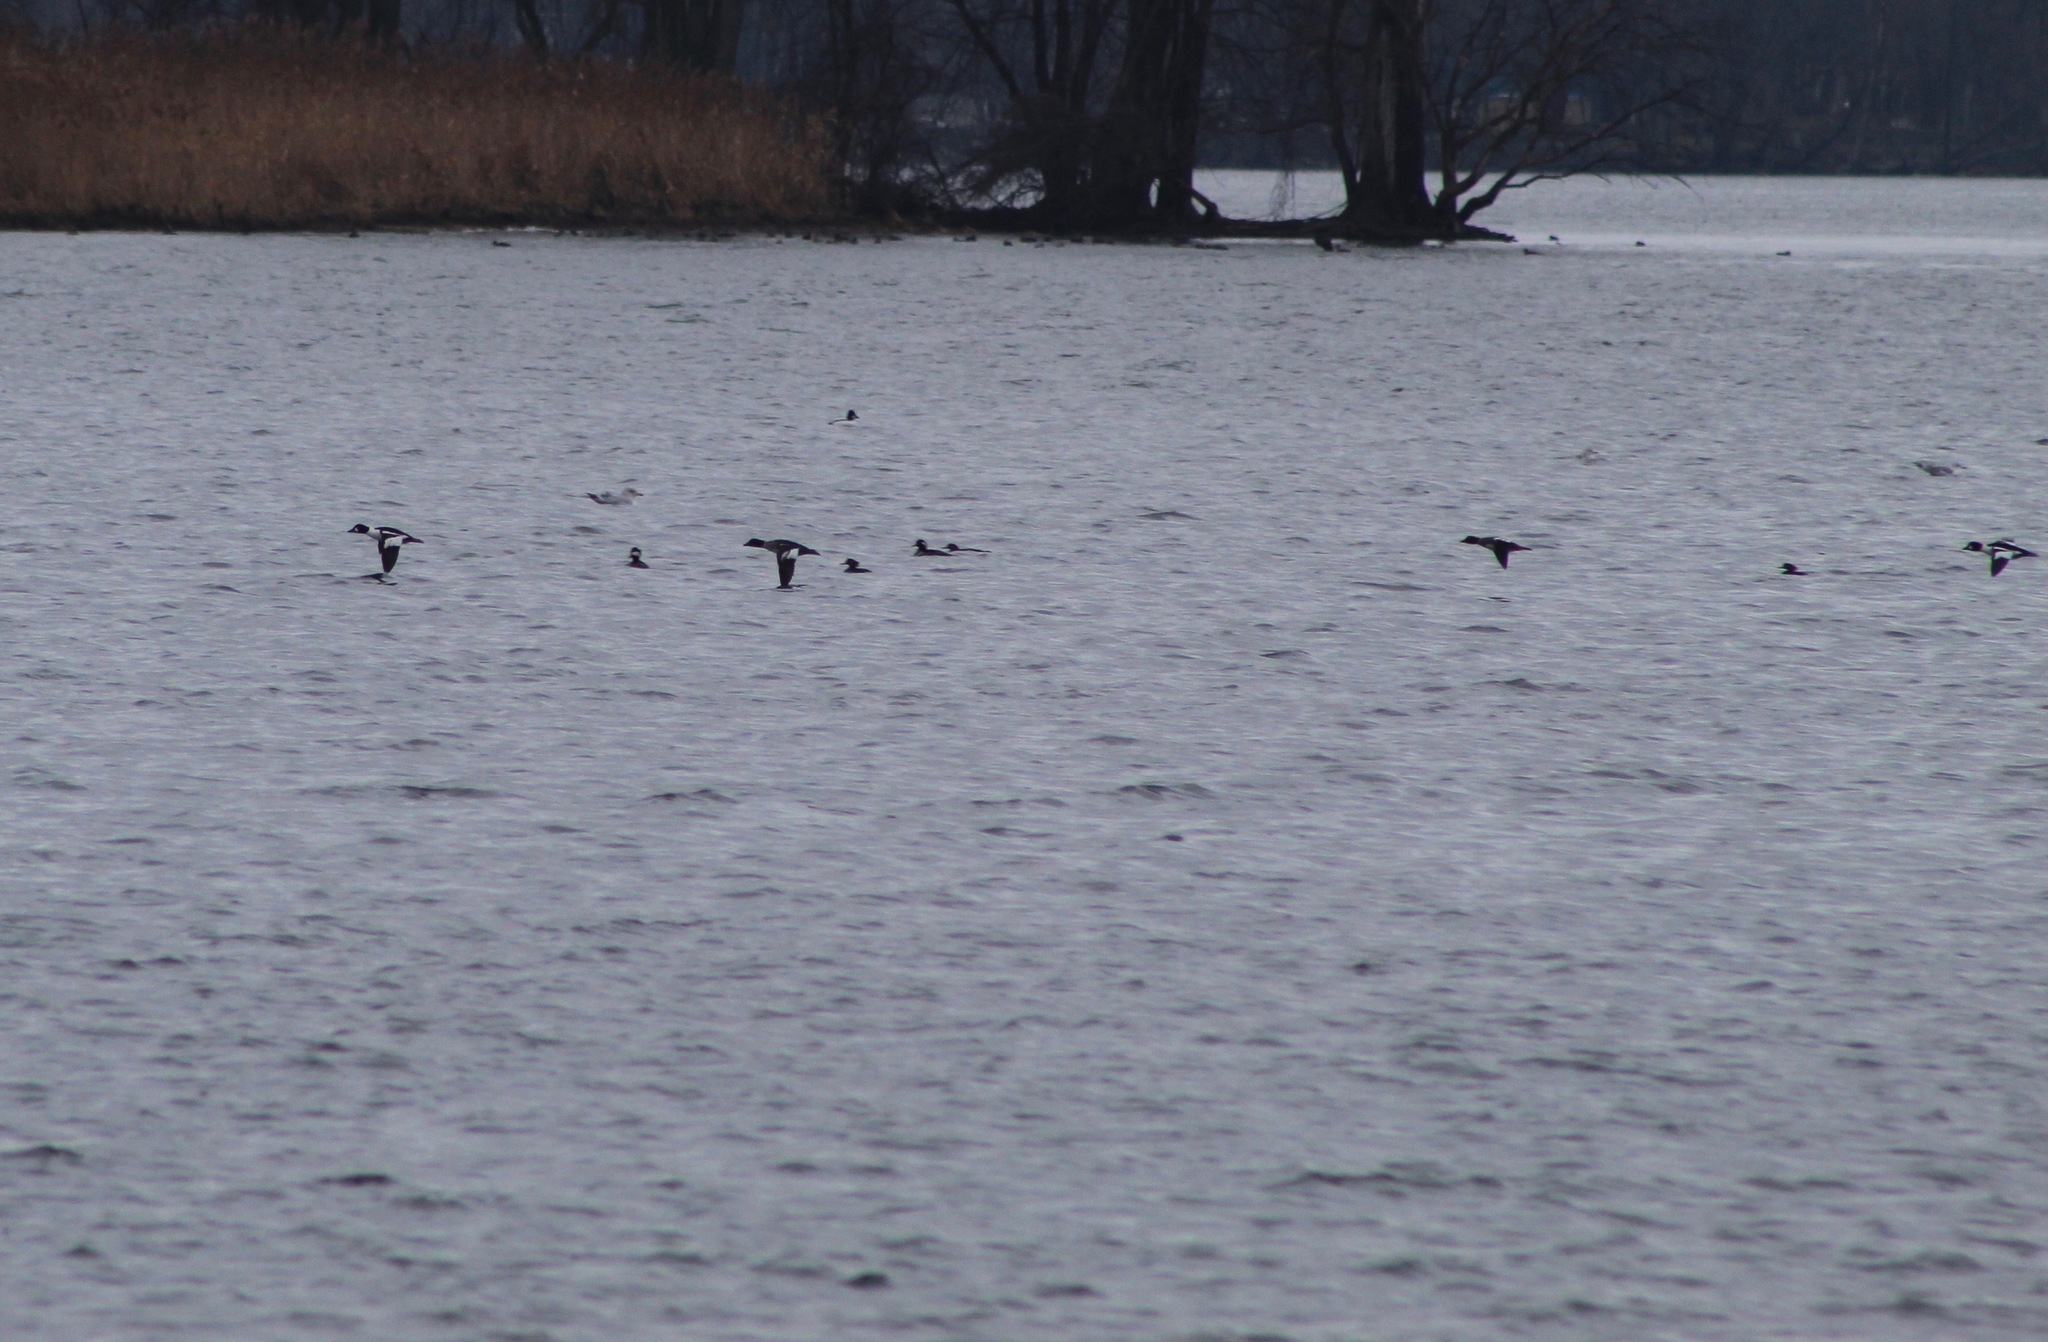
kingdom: Animalia
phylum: Chordata
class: Aves
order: Anseriformes
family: Anatidae
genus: Bucephala
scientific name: Bucephala clangula
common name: Common goldeneye
